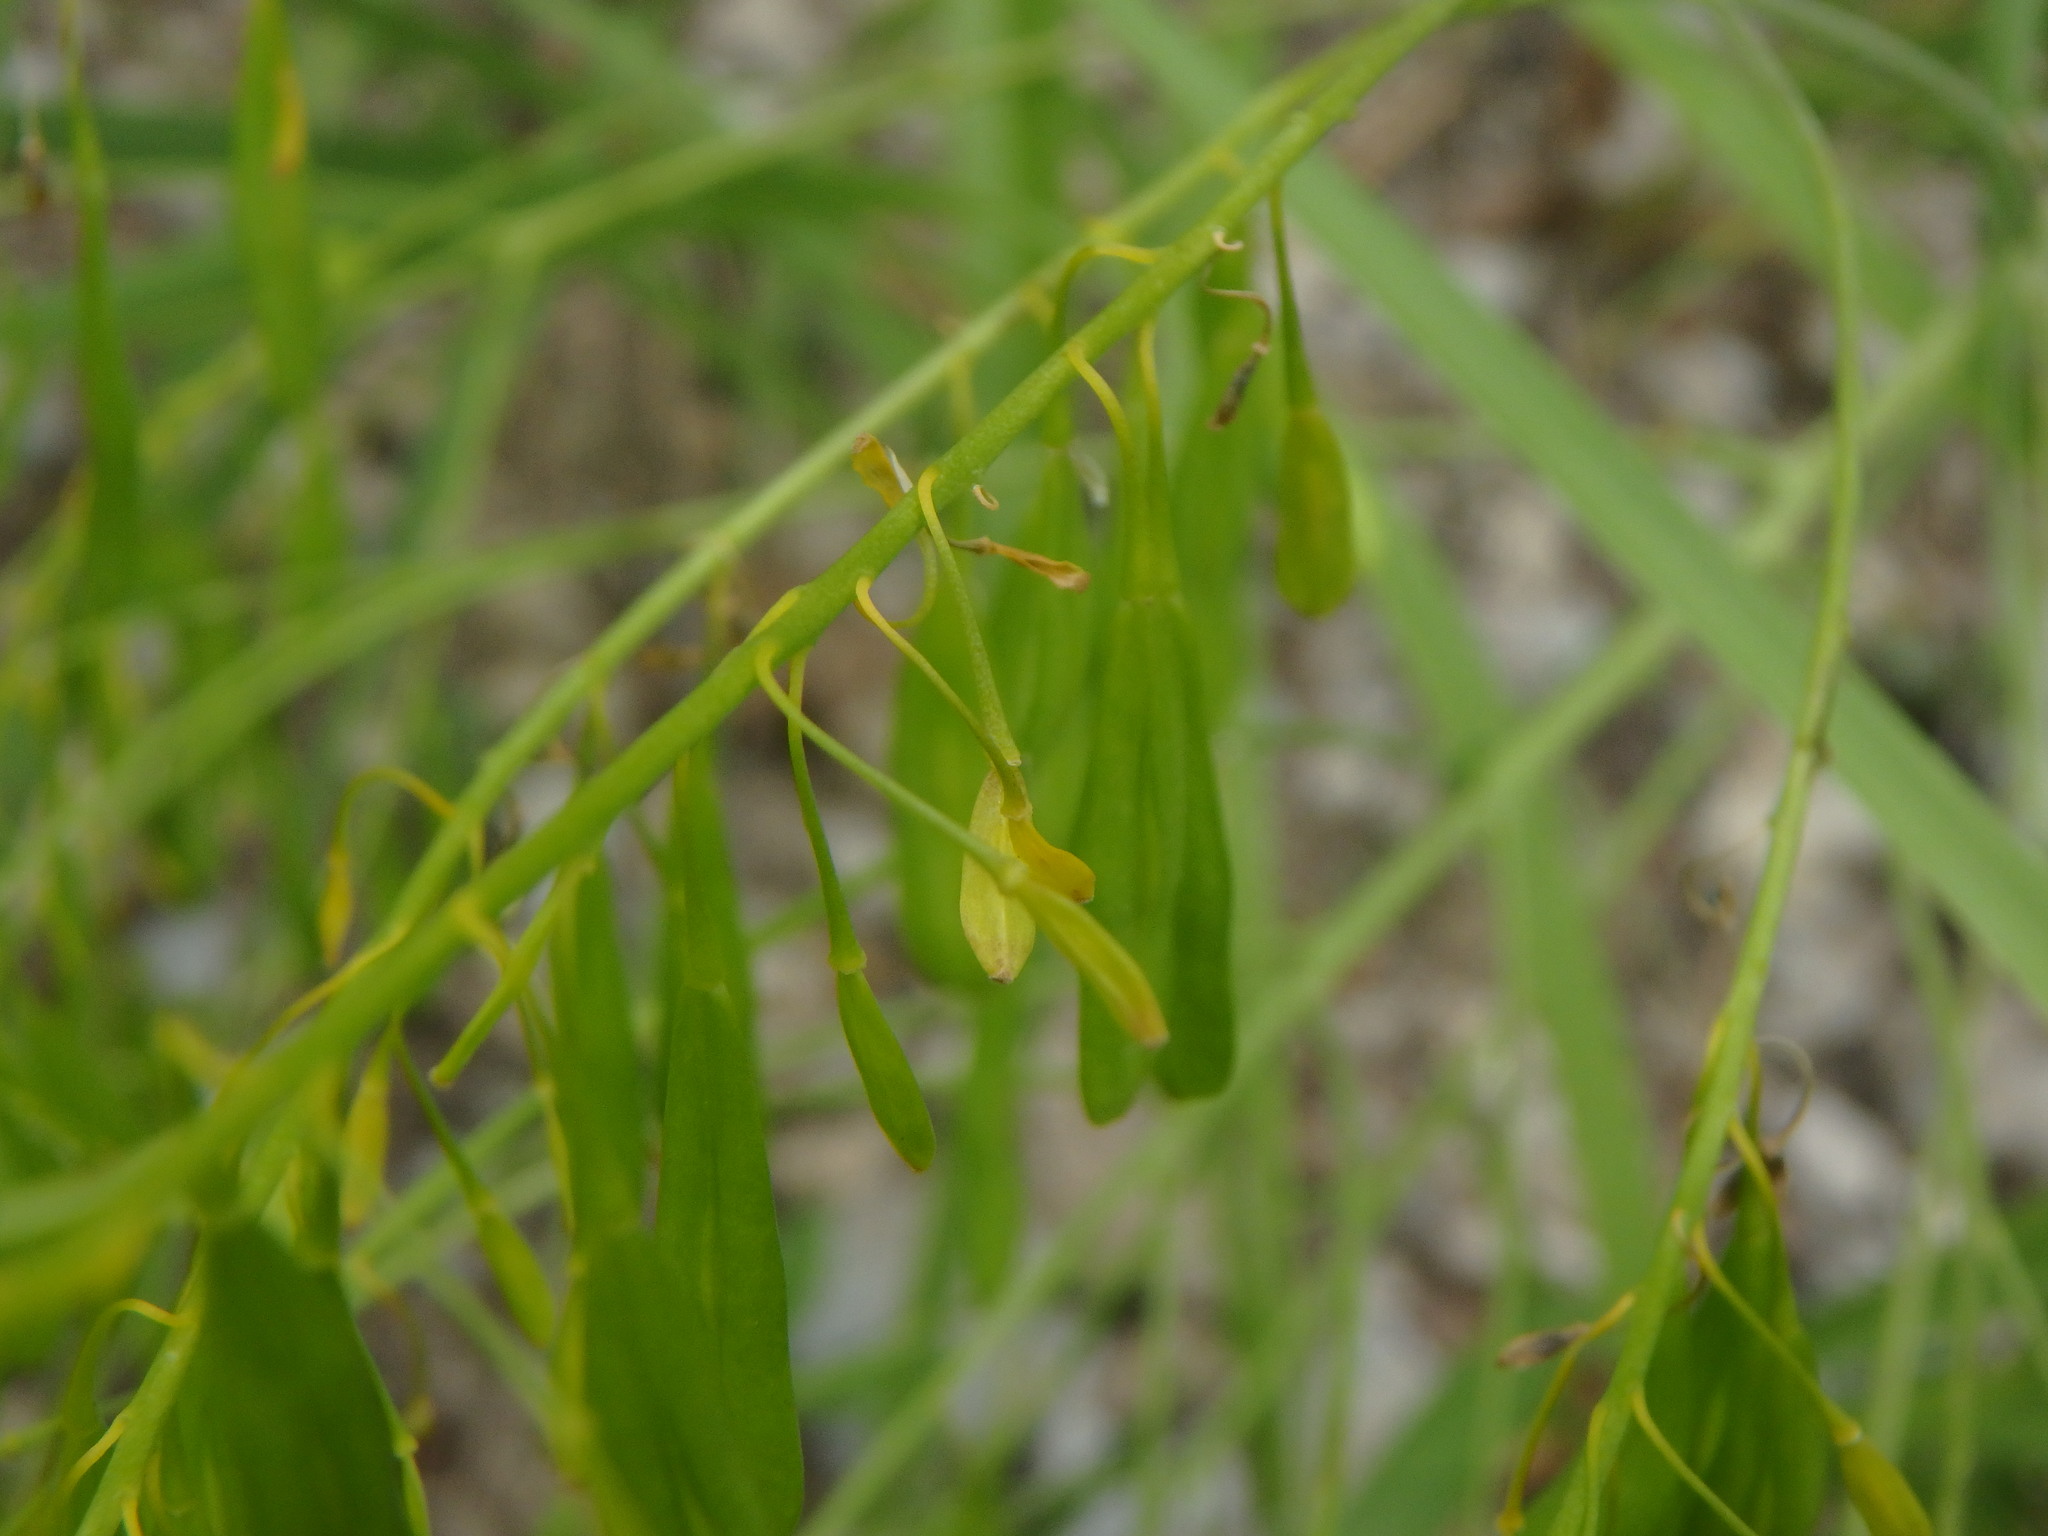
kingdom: Plantae
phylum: Tracheophyta
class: Magnoliopsida
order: Brassicales
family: Brassicaceae
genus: Isatis
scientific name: Isatis tinctoria
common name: Woad
